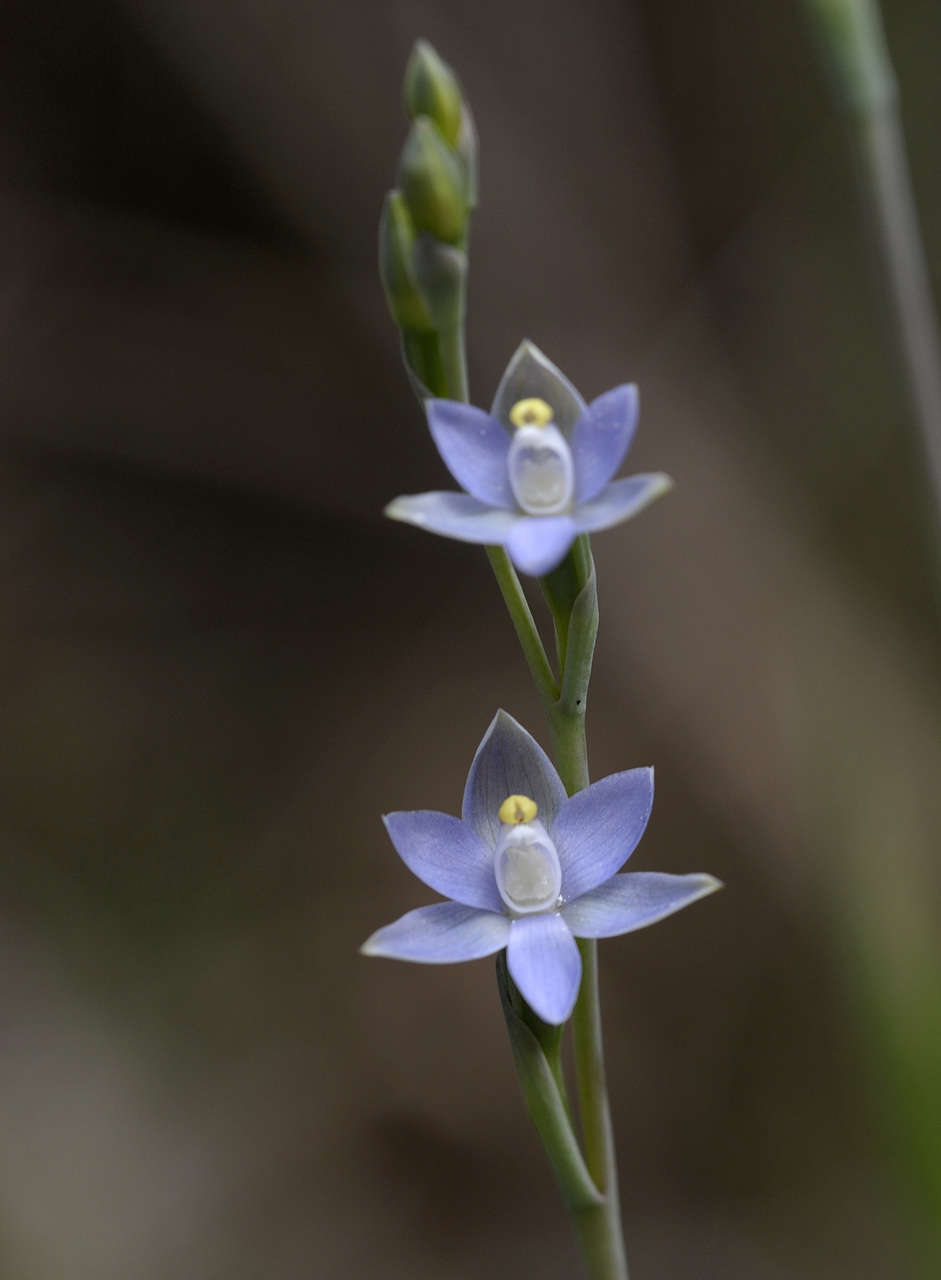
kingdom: Plantae
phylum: Tracheophyta
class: Liliopsida
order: Asparagales
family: Orchidaceae
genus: Thelymitra
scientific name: Thelymitra pauciflora
